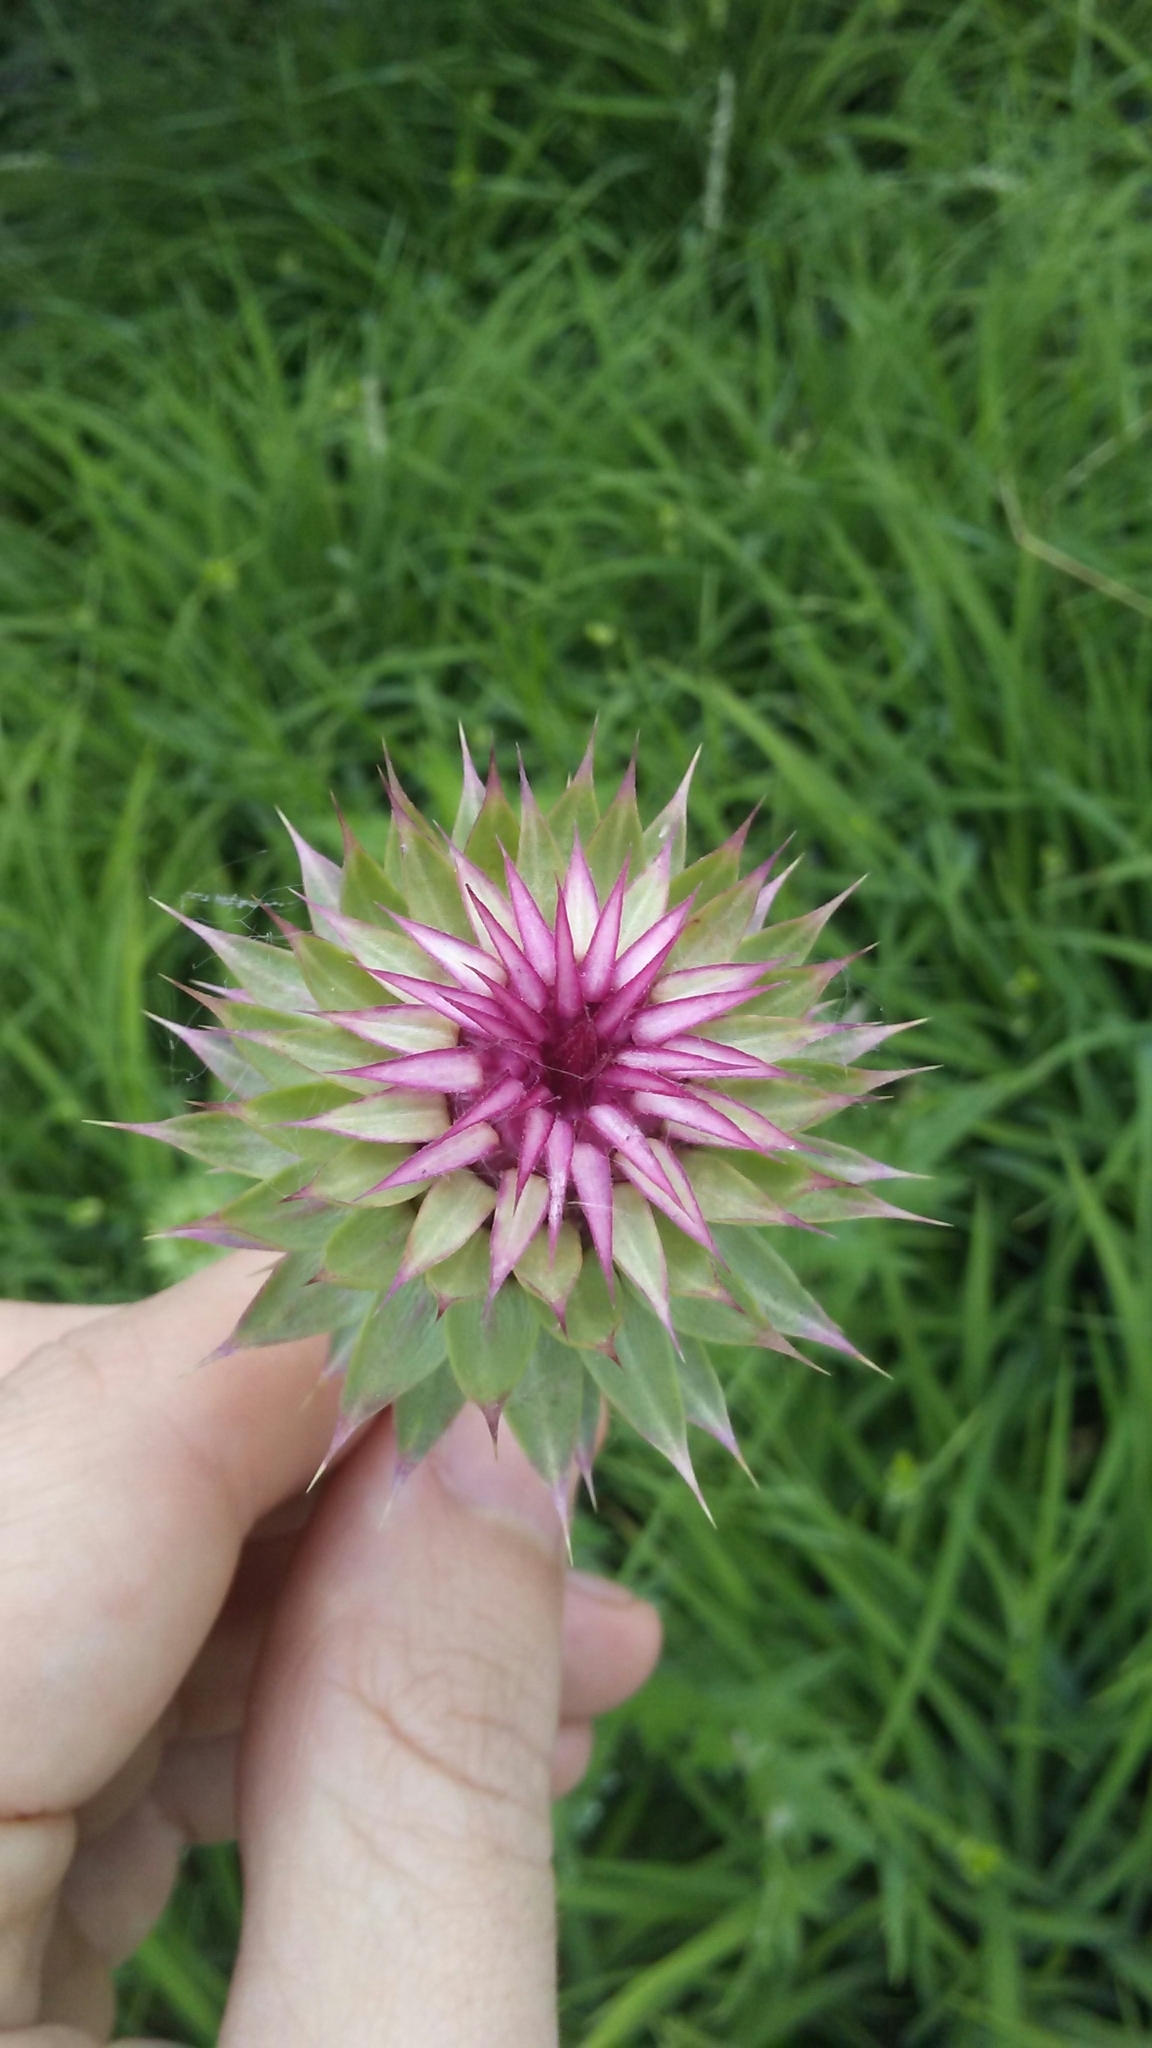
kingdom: Plantae
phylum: Tracheophyta
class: Magnoliopsida
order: Asterales
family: Asteraceae
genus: Carduus
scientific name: Carduus nutans
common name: Musk thistle
